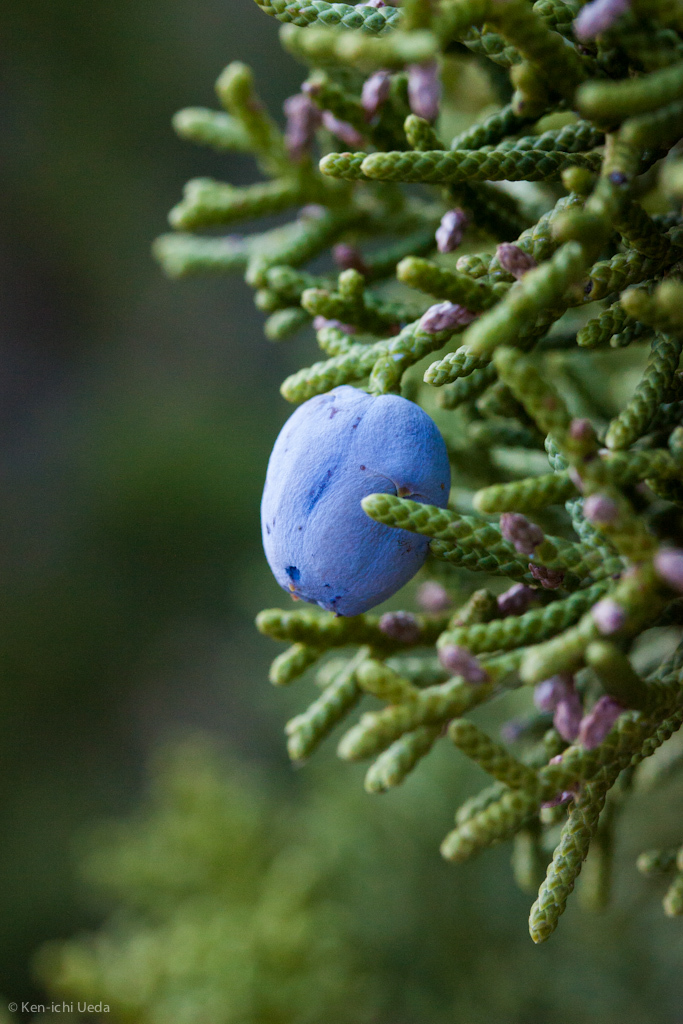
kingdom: Plantae
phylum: Tracheophyta
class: Pinopsida
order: Pinales
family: Cupressaceae
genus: Juniperus
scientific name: Juniperus californica
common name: California juniper
